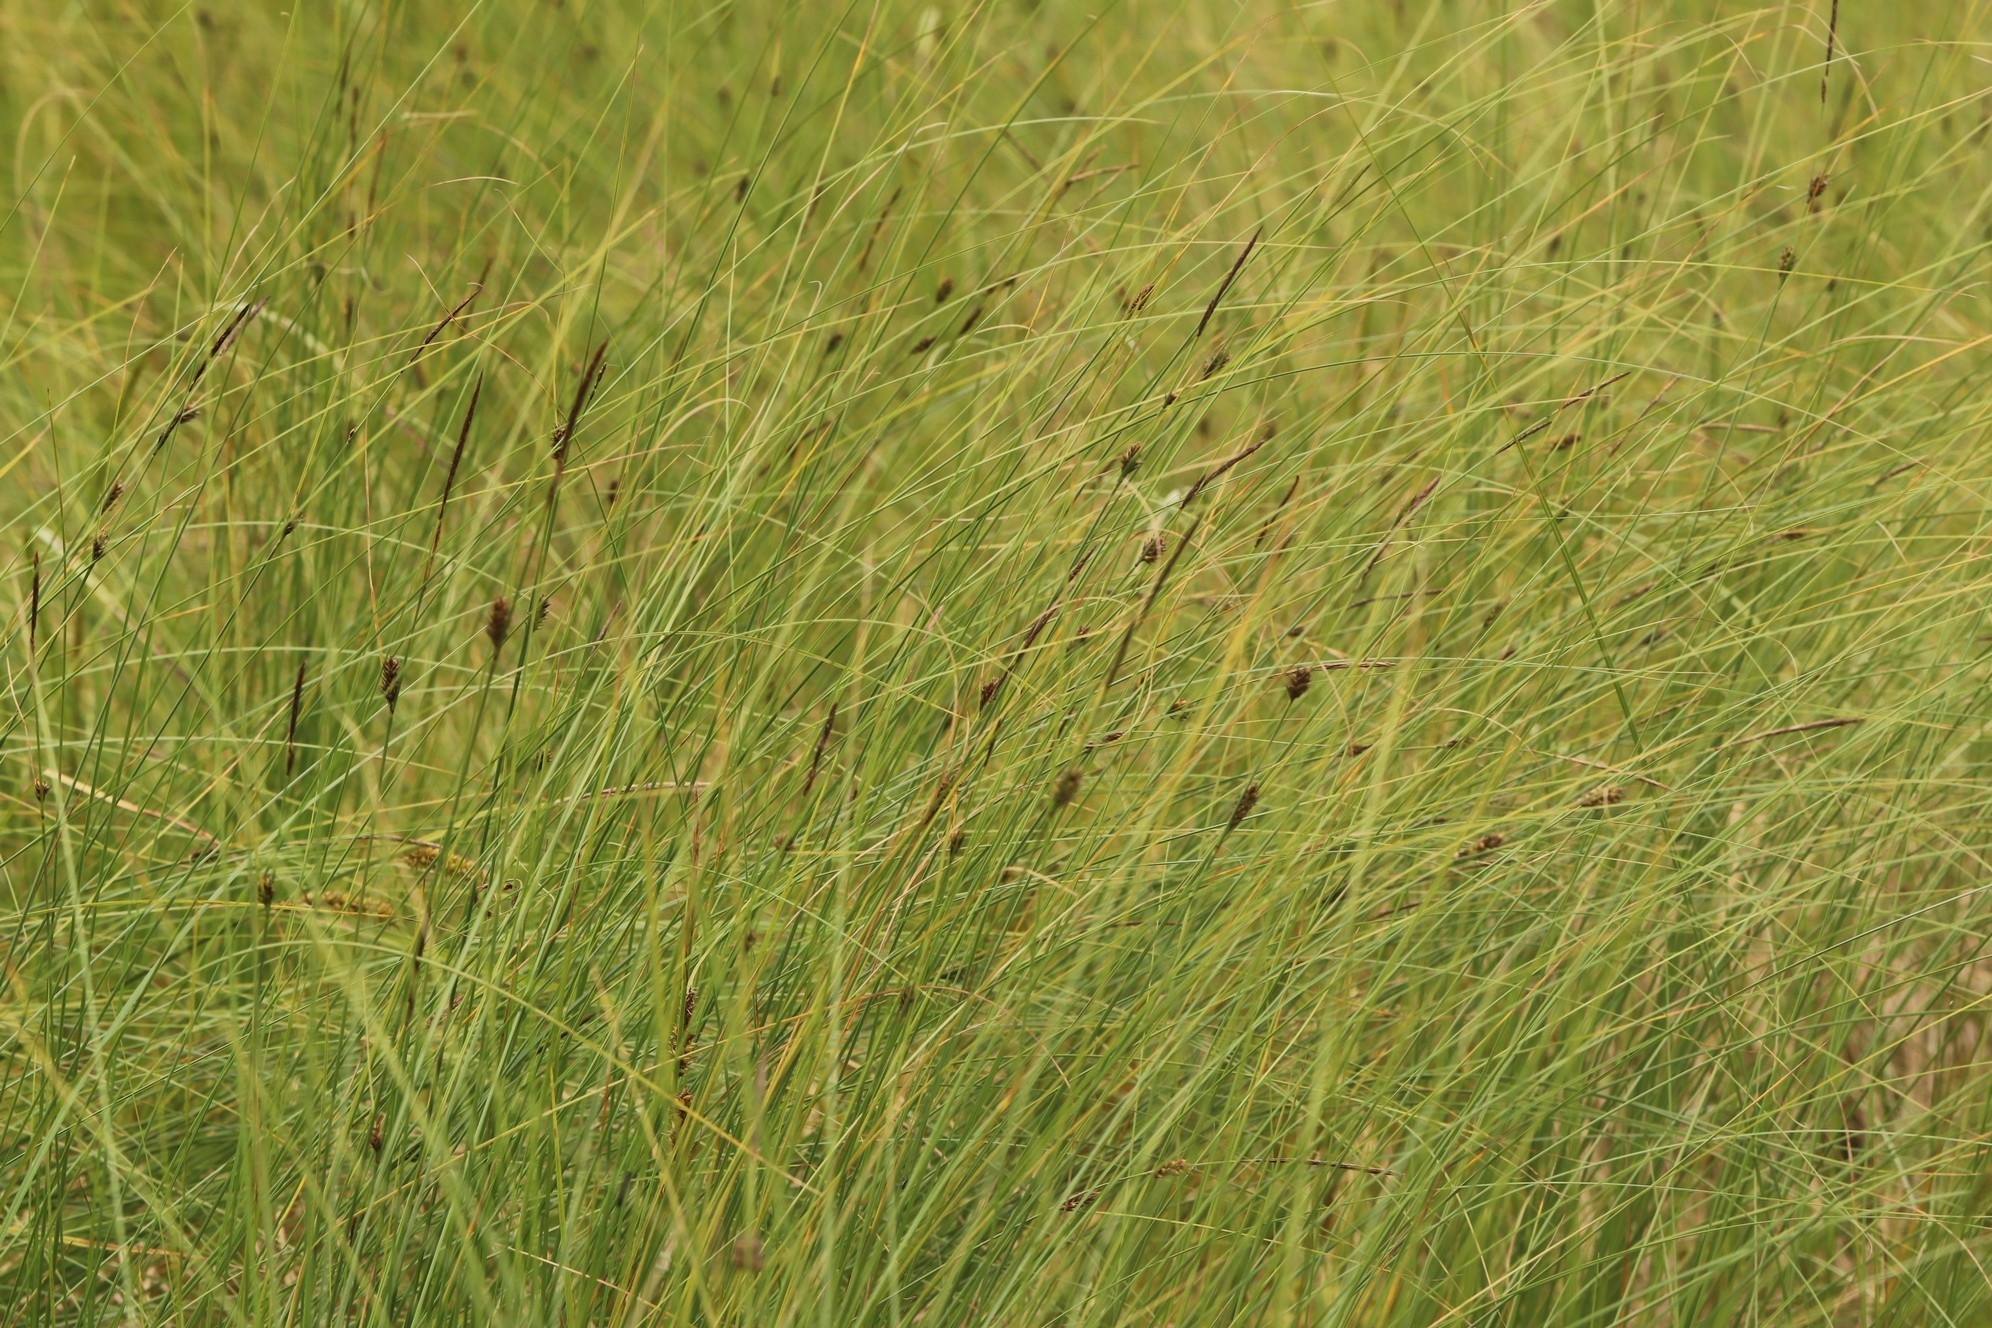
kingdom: Plantae
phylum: Tracheophyta
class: Liliopsida
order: Poales
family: Cyperaceae
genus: Carex
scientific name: Carex lasiocarpa
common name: Slender sedge
